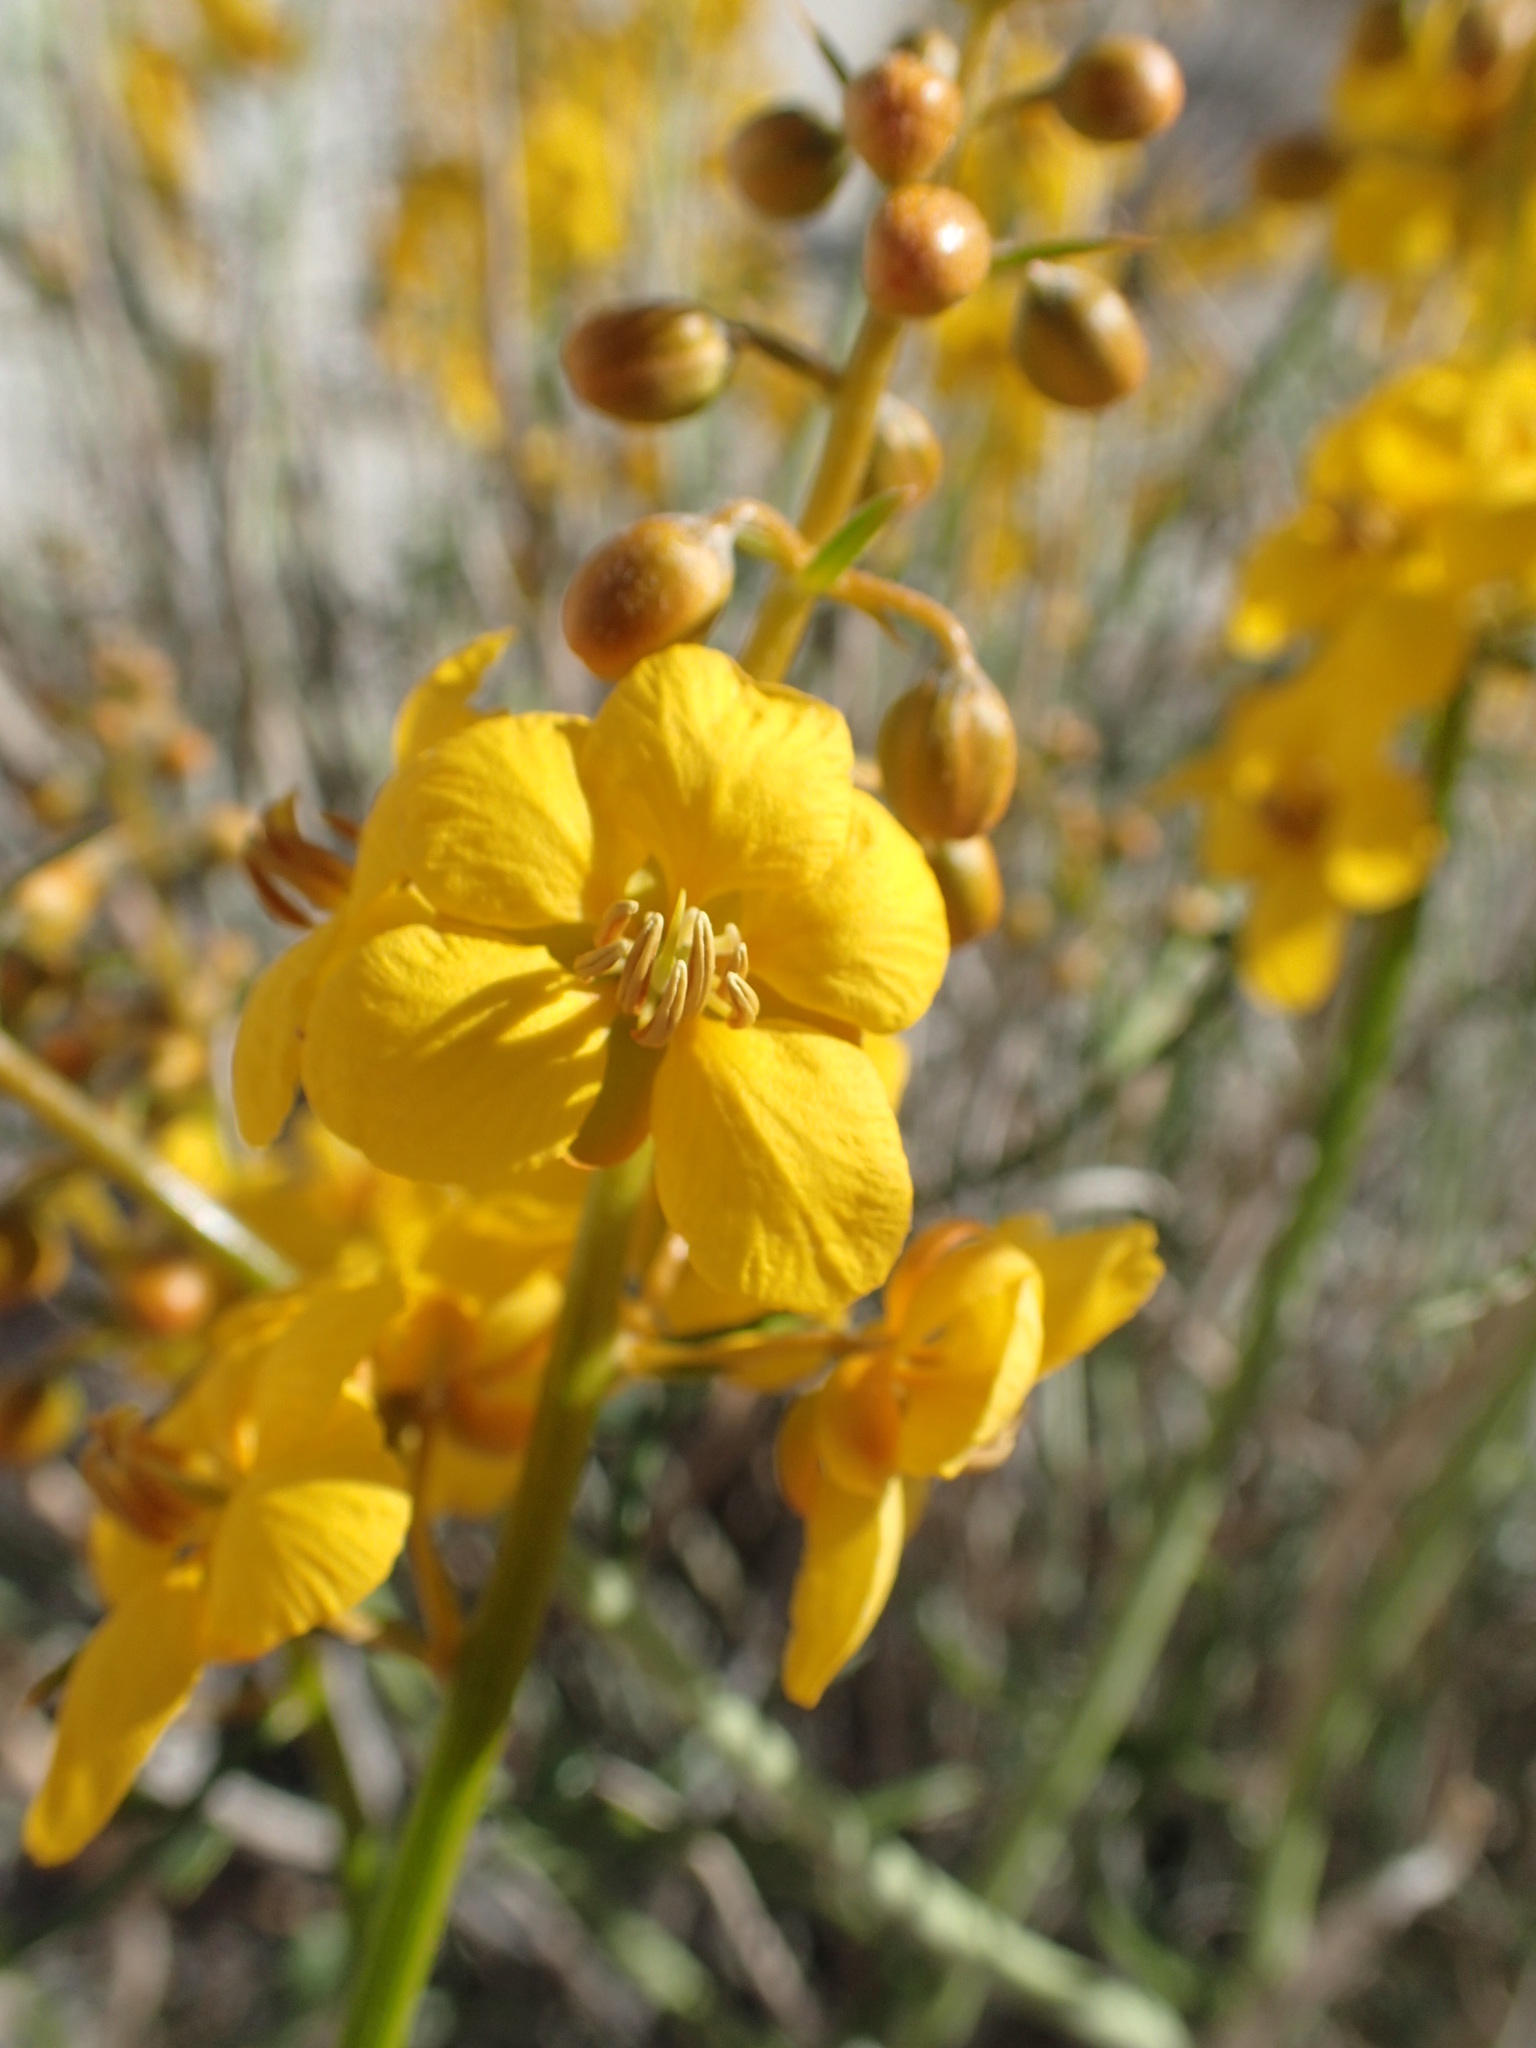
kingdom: Plantae
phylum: Tracheophyta
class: Magnoliopsida
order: Fabales
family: Fabaceae
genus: Senna
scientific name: Senna armata
